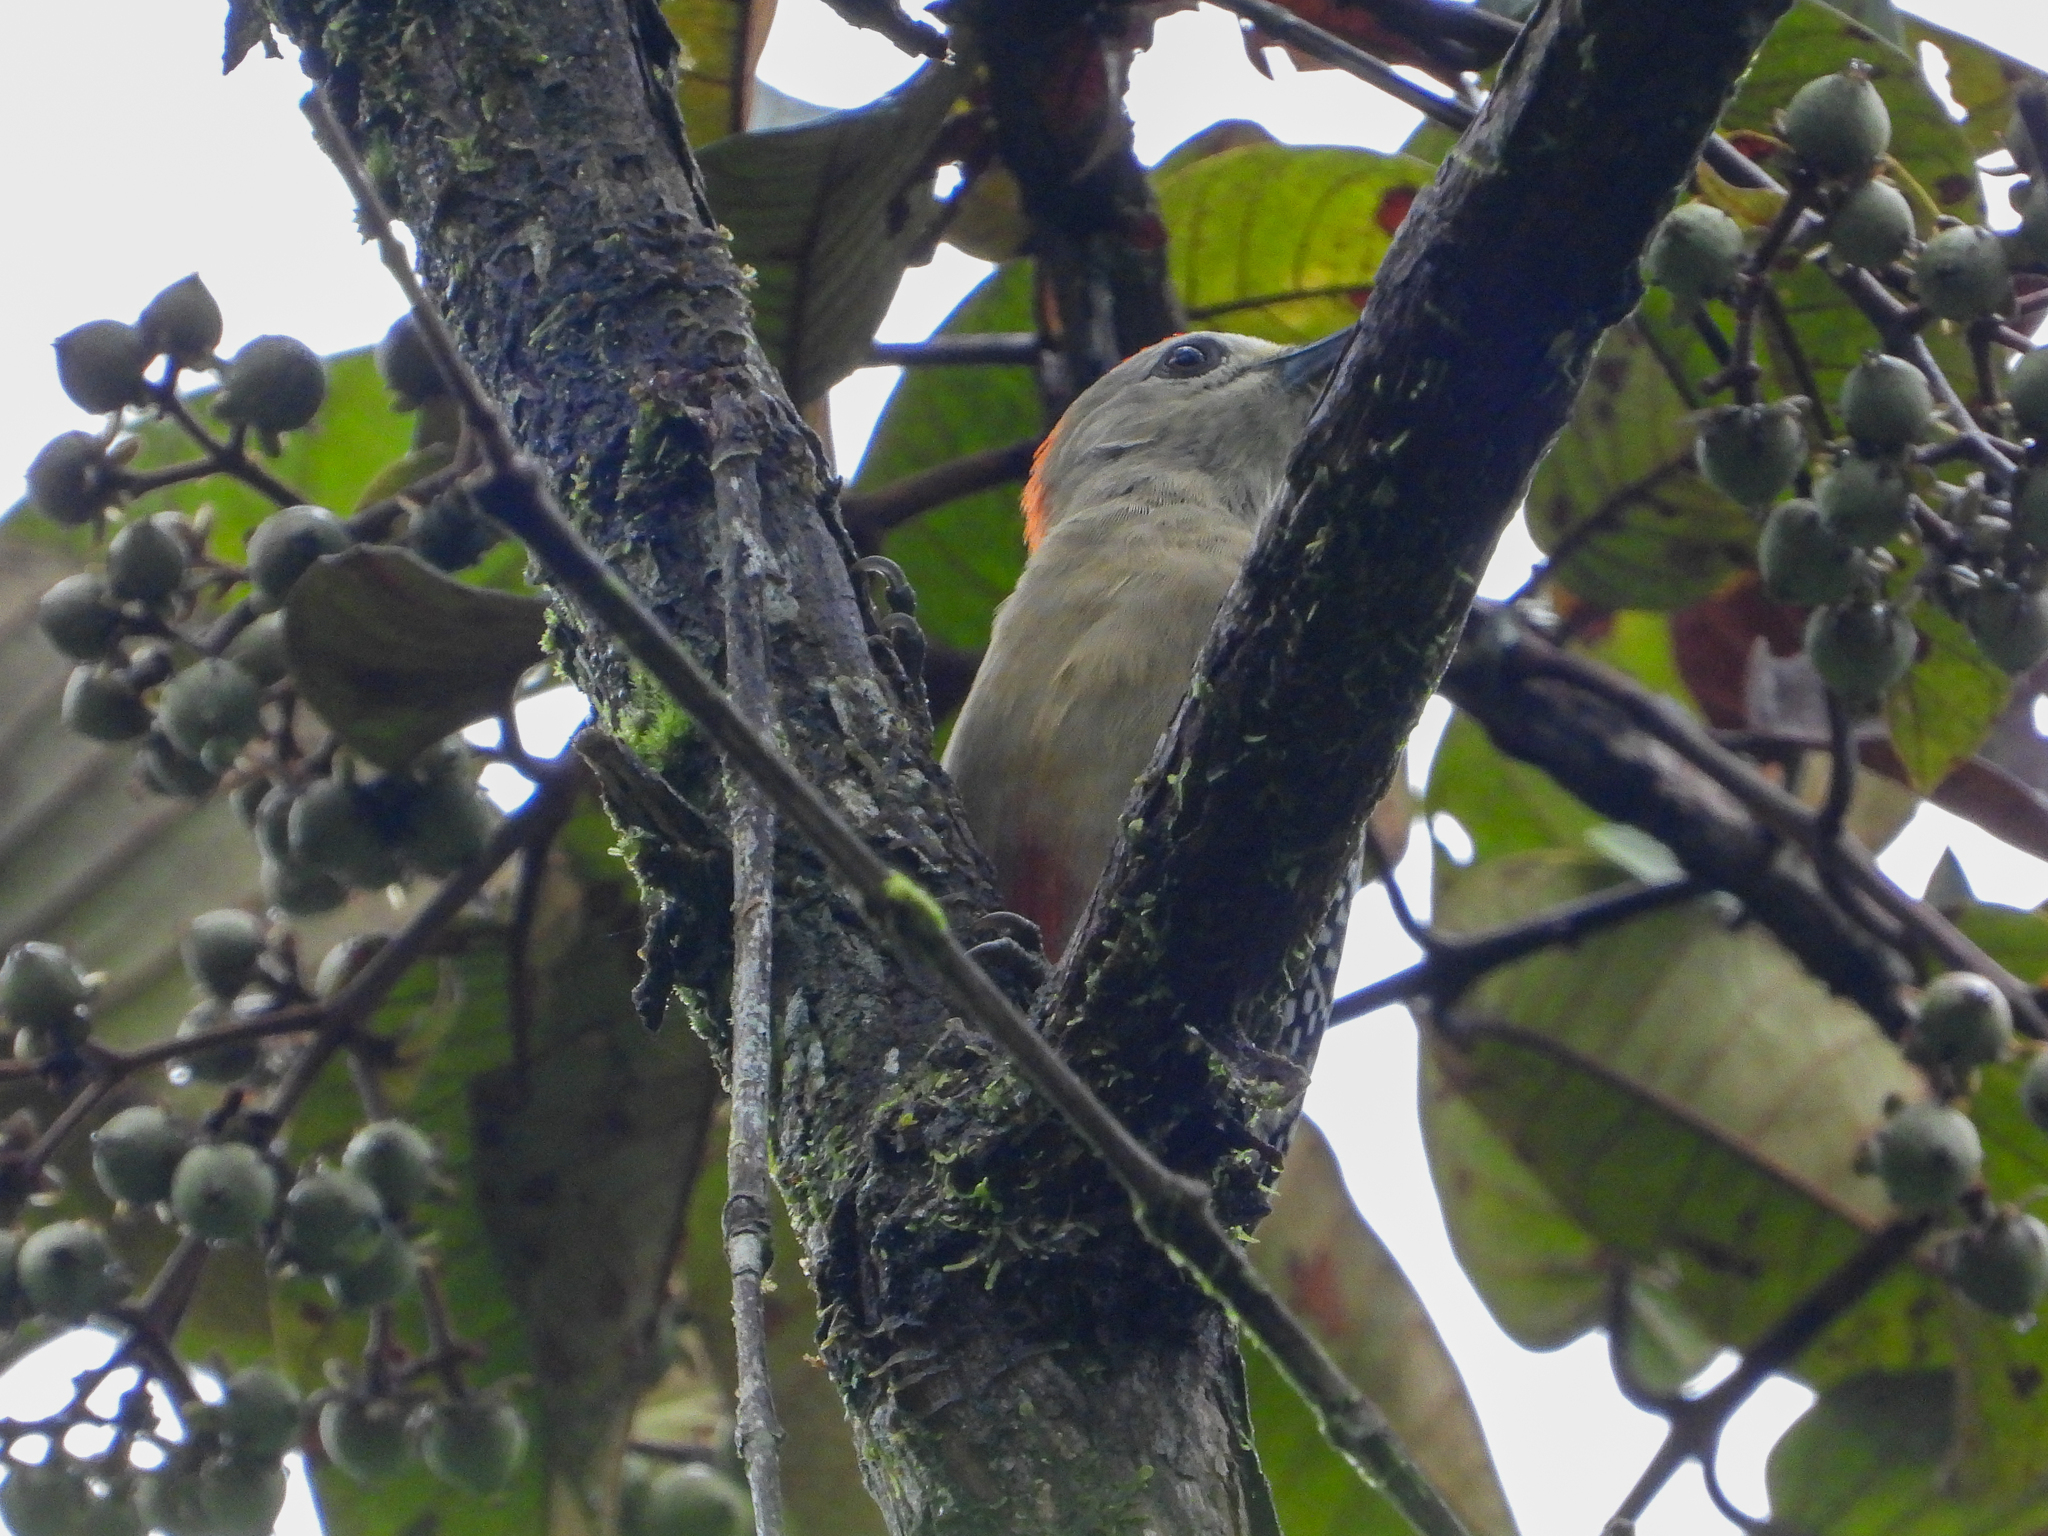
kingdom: Animalia
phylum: Chordata
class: Aves
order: Piciformes
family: Picidae
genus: Melanerpes
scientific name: Melanerpes rubricapillus
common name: Red-crowned woodpecker
